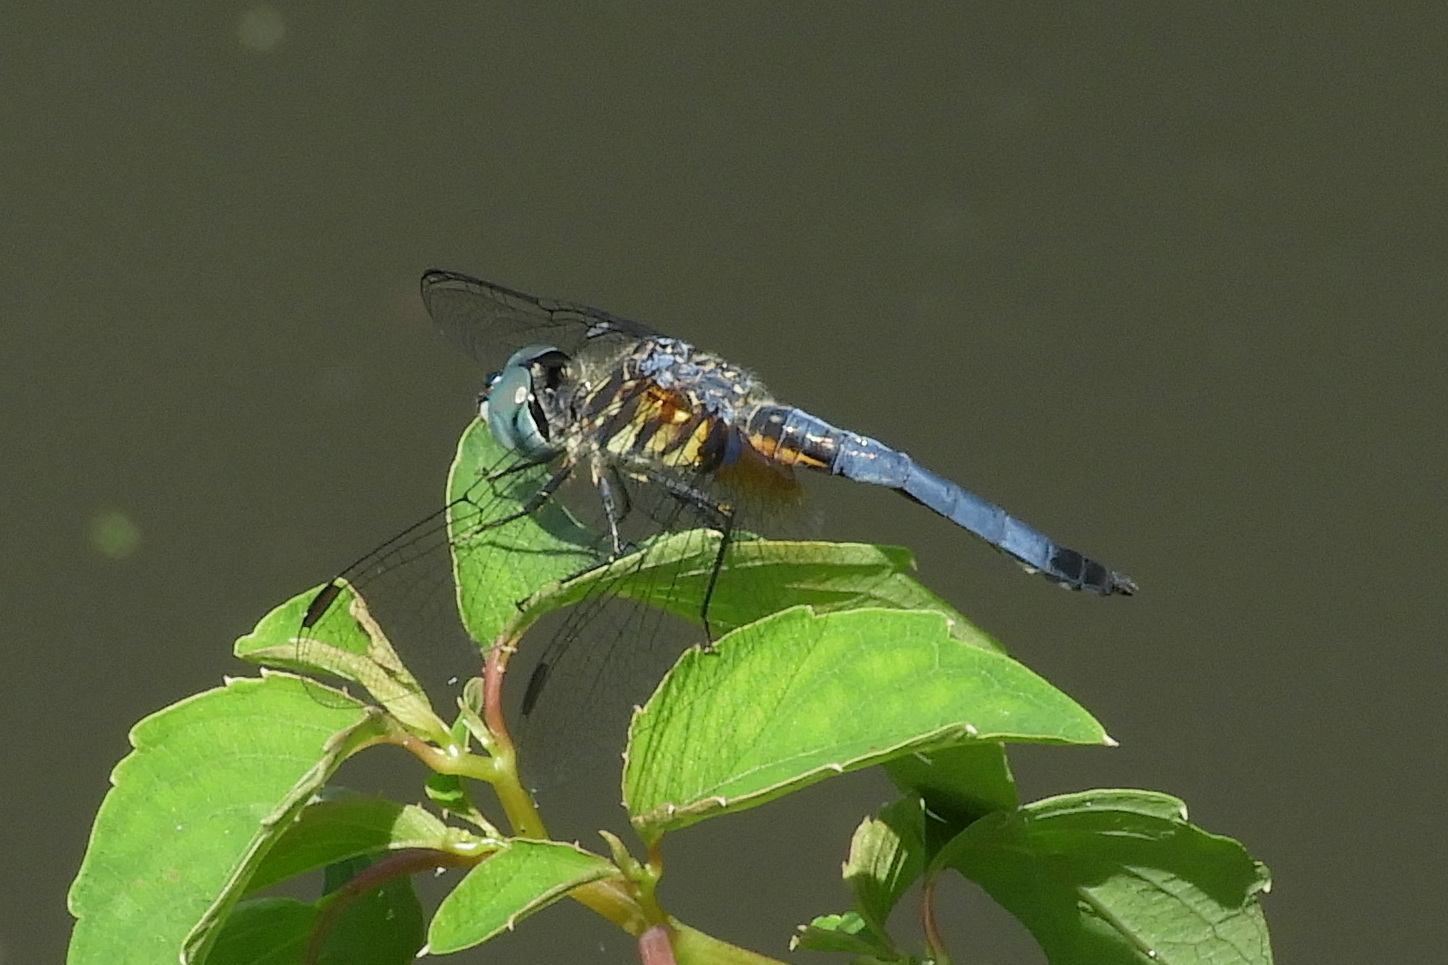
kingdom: Animalia
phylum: Arthropoda
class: Insecta
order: Odonata
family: Libellulidae
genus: Pachydiplax
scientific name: Pachydiplax longipennis
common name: Blue dasher
